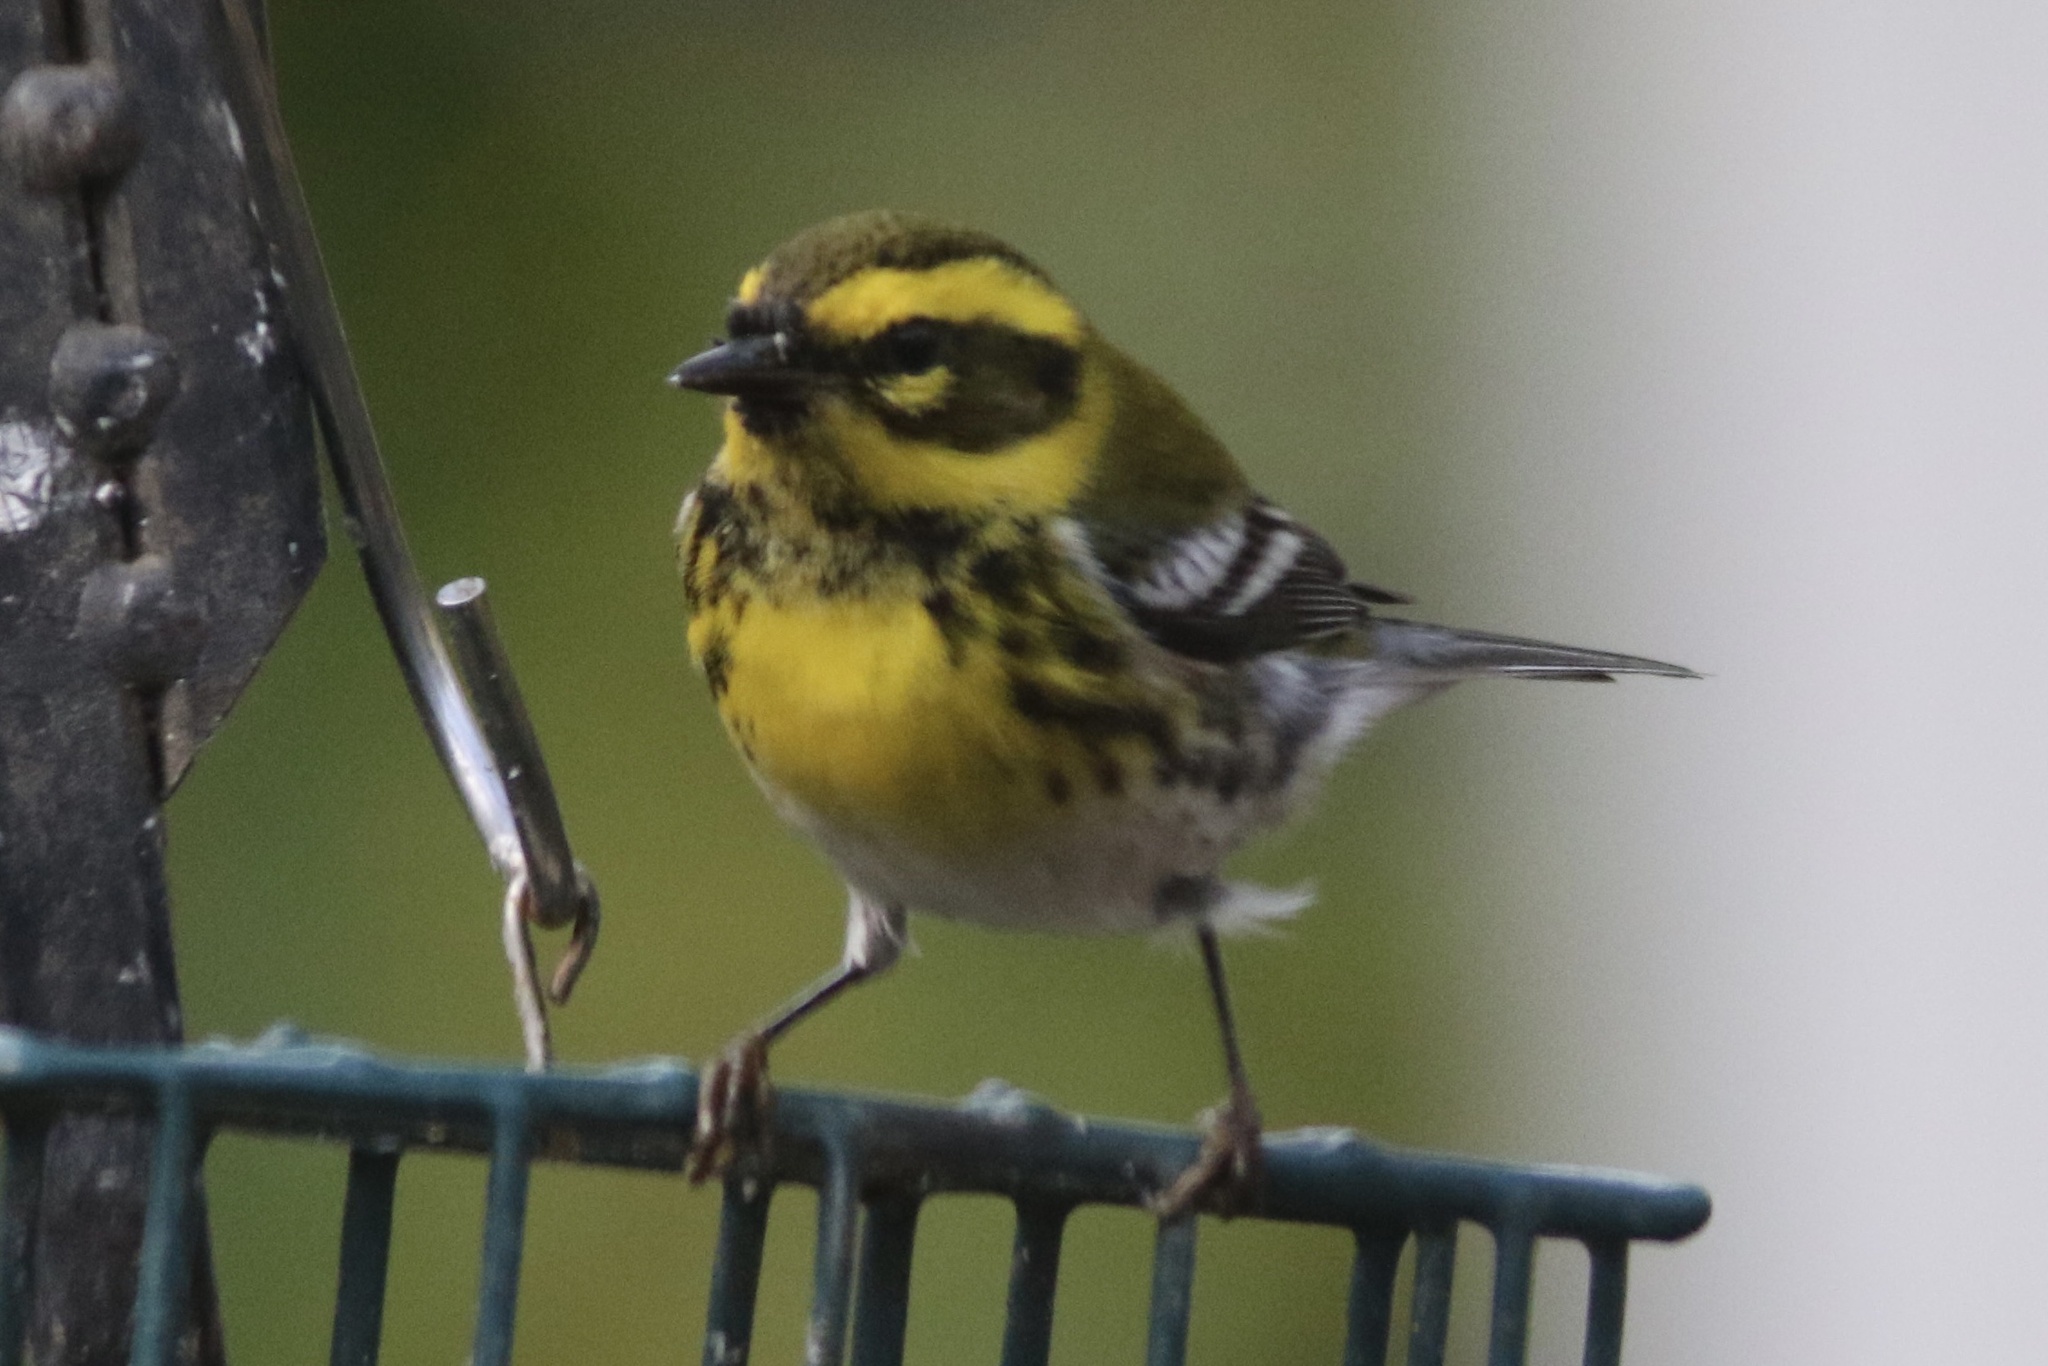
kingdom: Animalia
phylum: Chordata
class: Aves
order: Passeriformes
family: Parulidae
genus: Setophaga
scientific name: Setophaga townsendi
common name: Townsend's warbler
